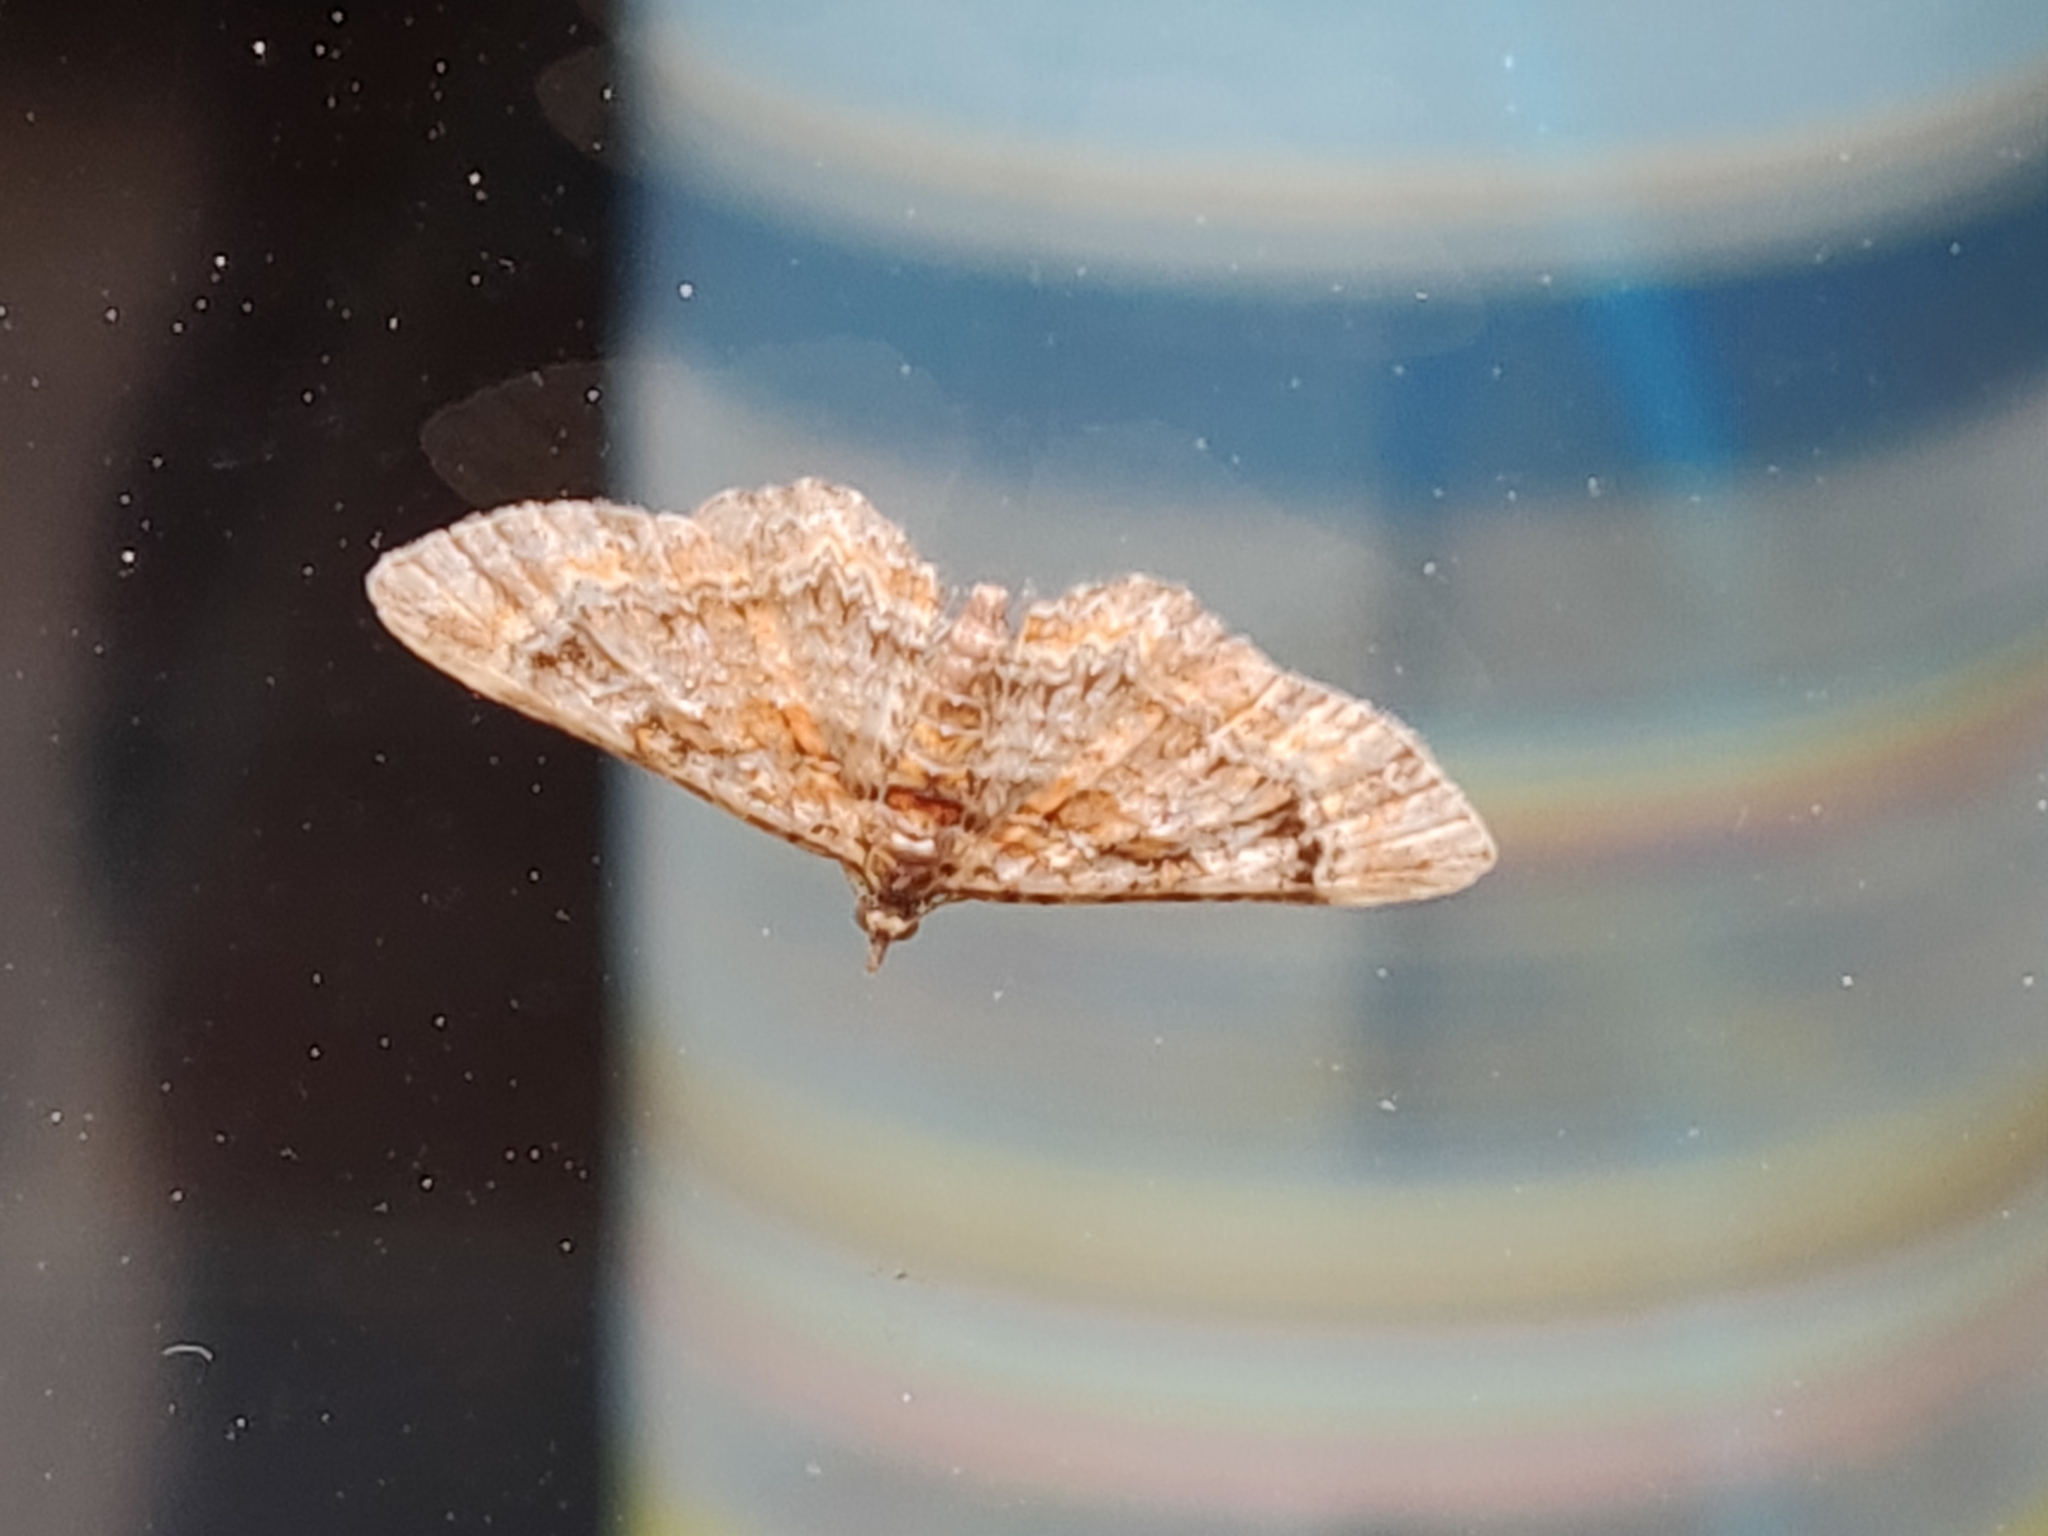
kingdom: Animalia
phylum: Arthropoda
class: Insecta
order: Lepidoptera
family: Geometridae
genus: Gymnoscelis
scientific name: Gymnoscelis rufifasciata
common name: Double-striped pug
